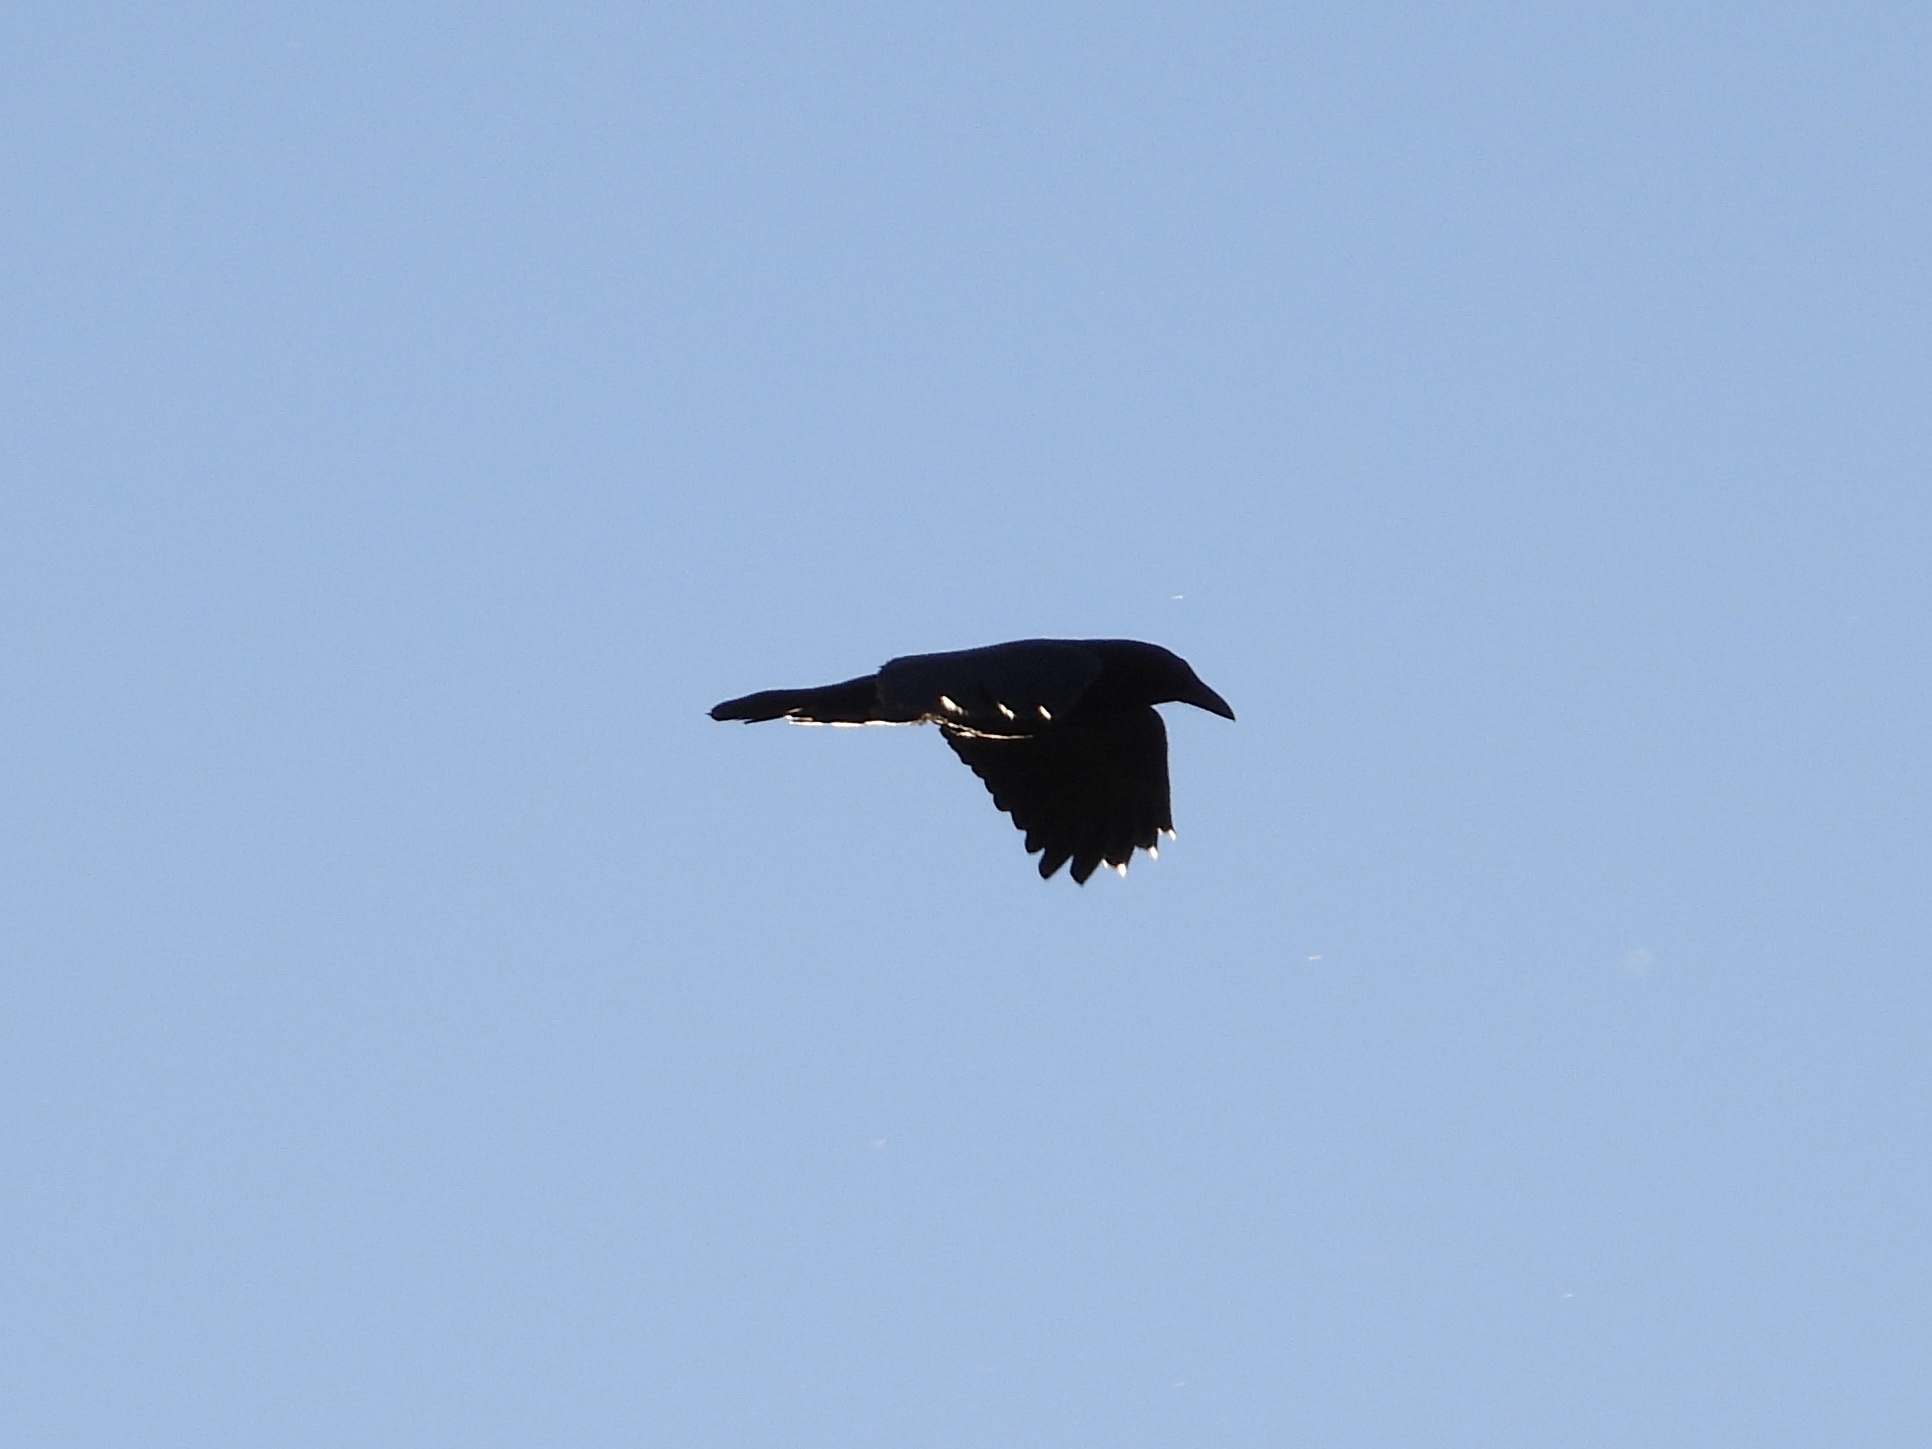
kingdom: Animalia
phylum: Chordata
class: Aves
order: Passeriformes
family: Corvidae
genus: Corvus
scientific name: Corvus corax
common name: Common raven
